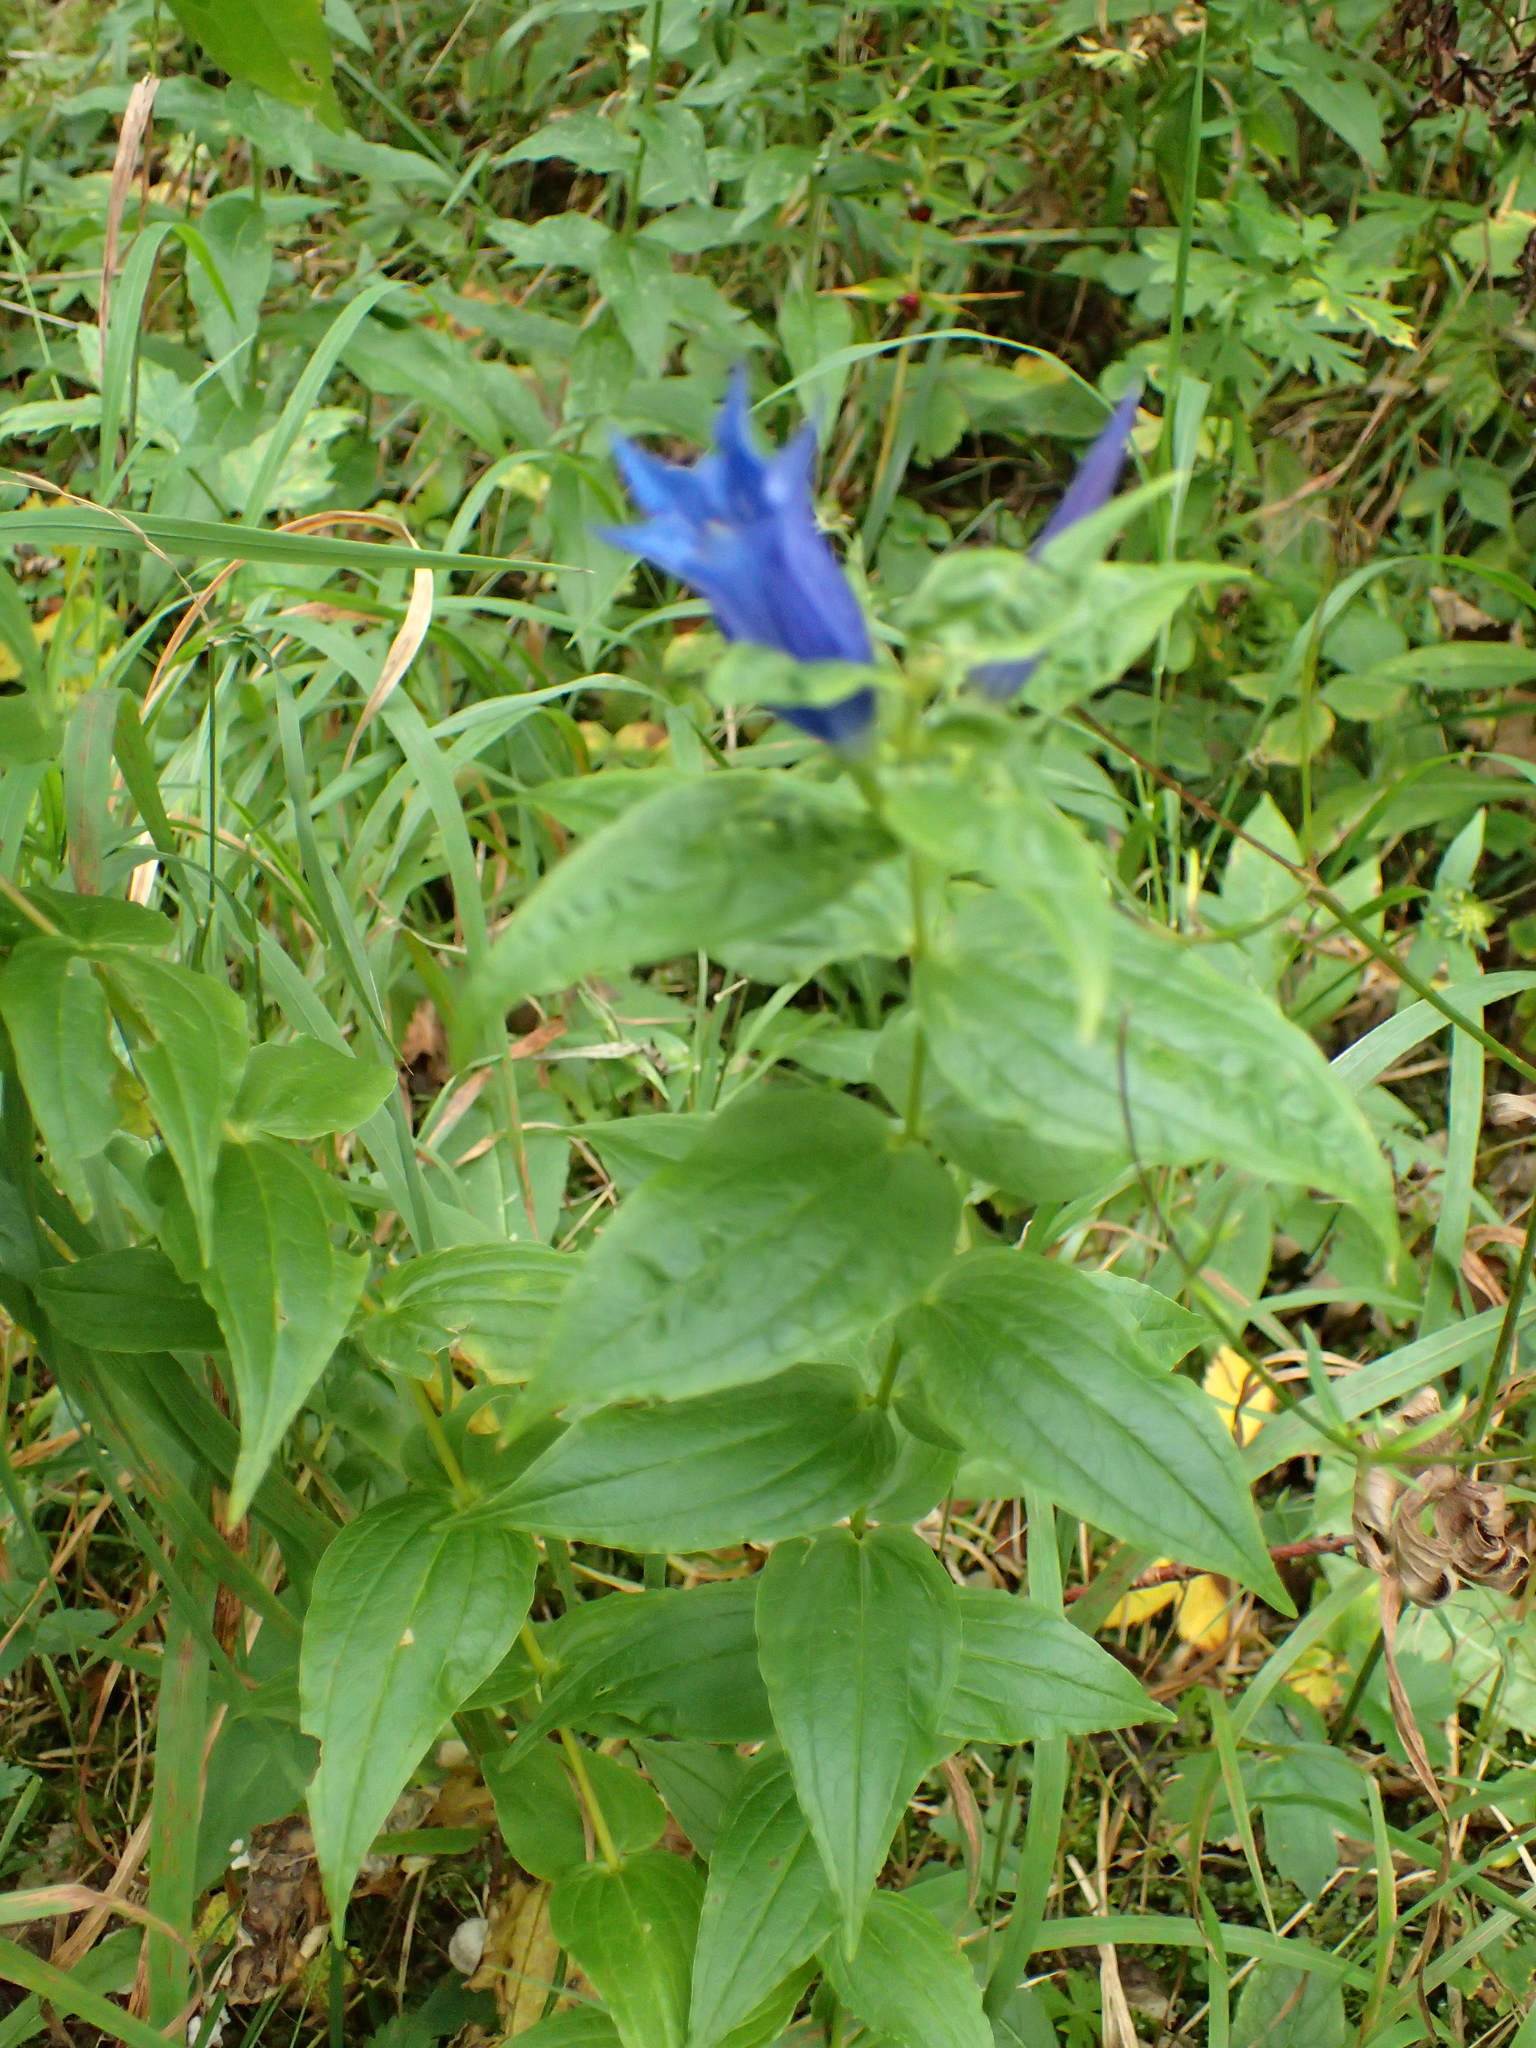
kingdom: Plantae
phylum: Tracheophyta
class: Magnoliopsida
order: Gentianales
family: Gentianaceae
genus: Gentiana
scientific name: Gentiana asclepiadea
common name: Willow gentian
